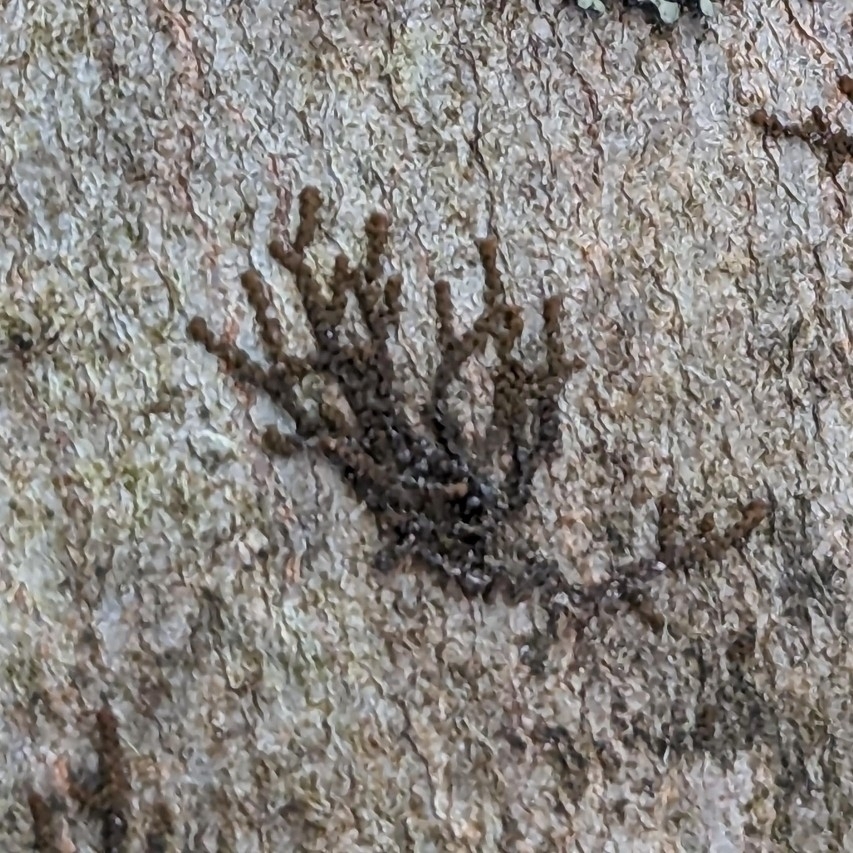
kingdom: Plantae
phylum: Marchantiophyta
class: Jungermanniopsida
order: Porellales
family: Frullaniaceae
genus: Frullania
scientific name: Frullania eboracensis
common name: New york scalewort
